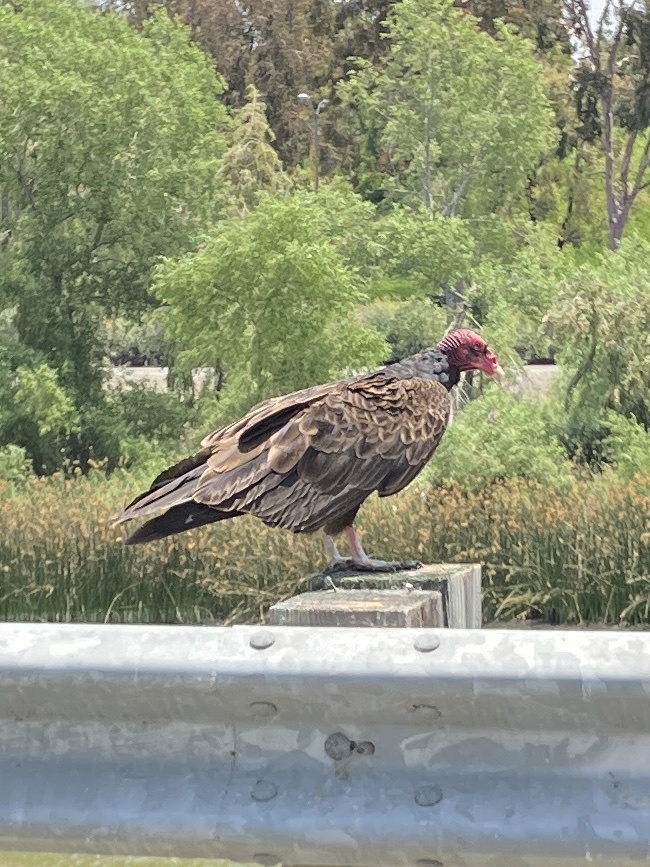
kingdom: Animalia
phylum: Chordata
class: Aves
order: Accipitriformes
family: Cathartidae
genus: Cathartes
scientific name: Cathartes aura
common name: Turkey vulture
